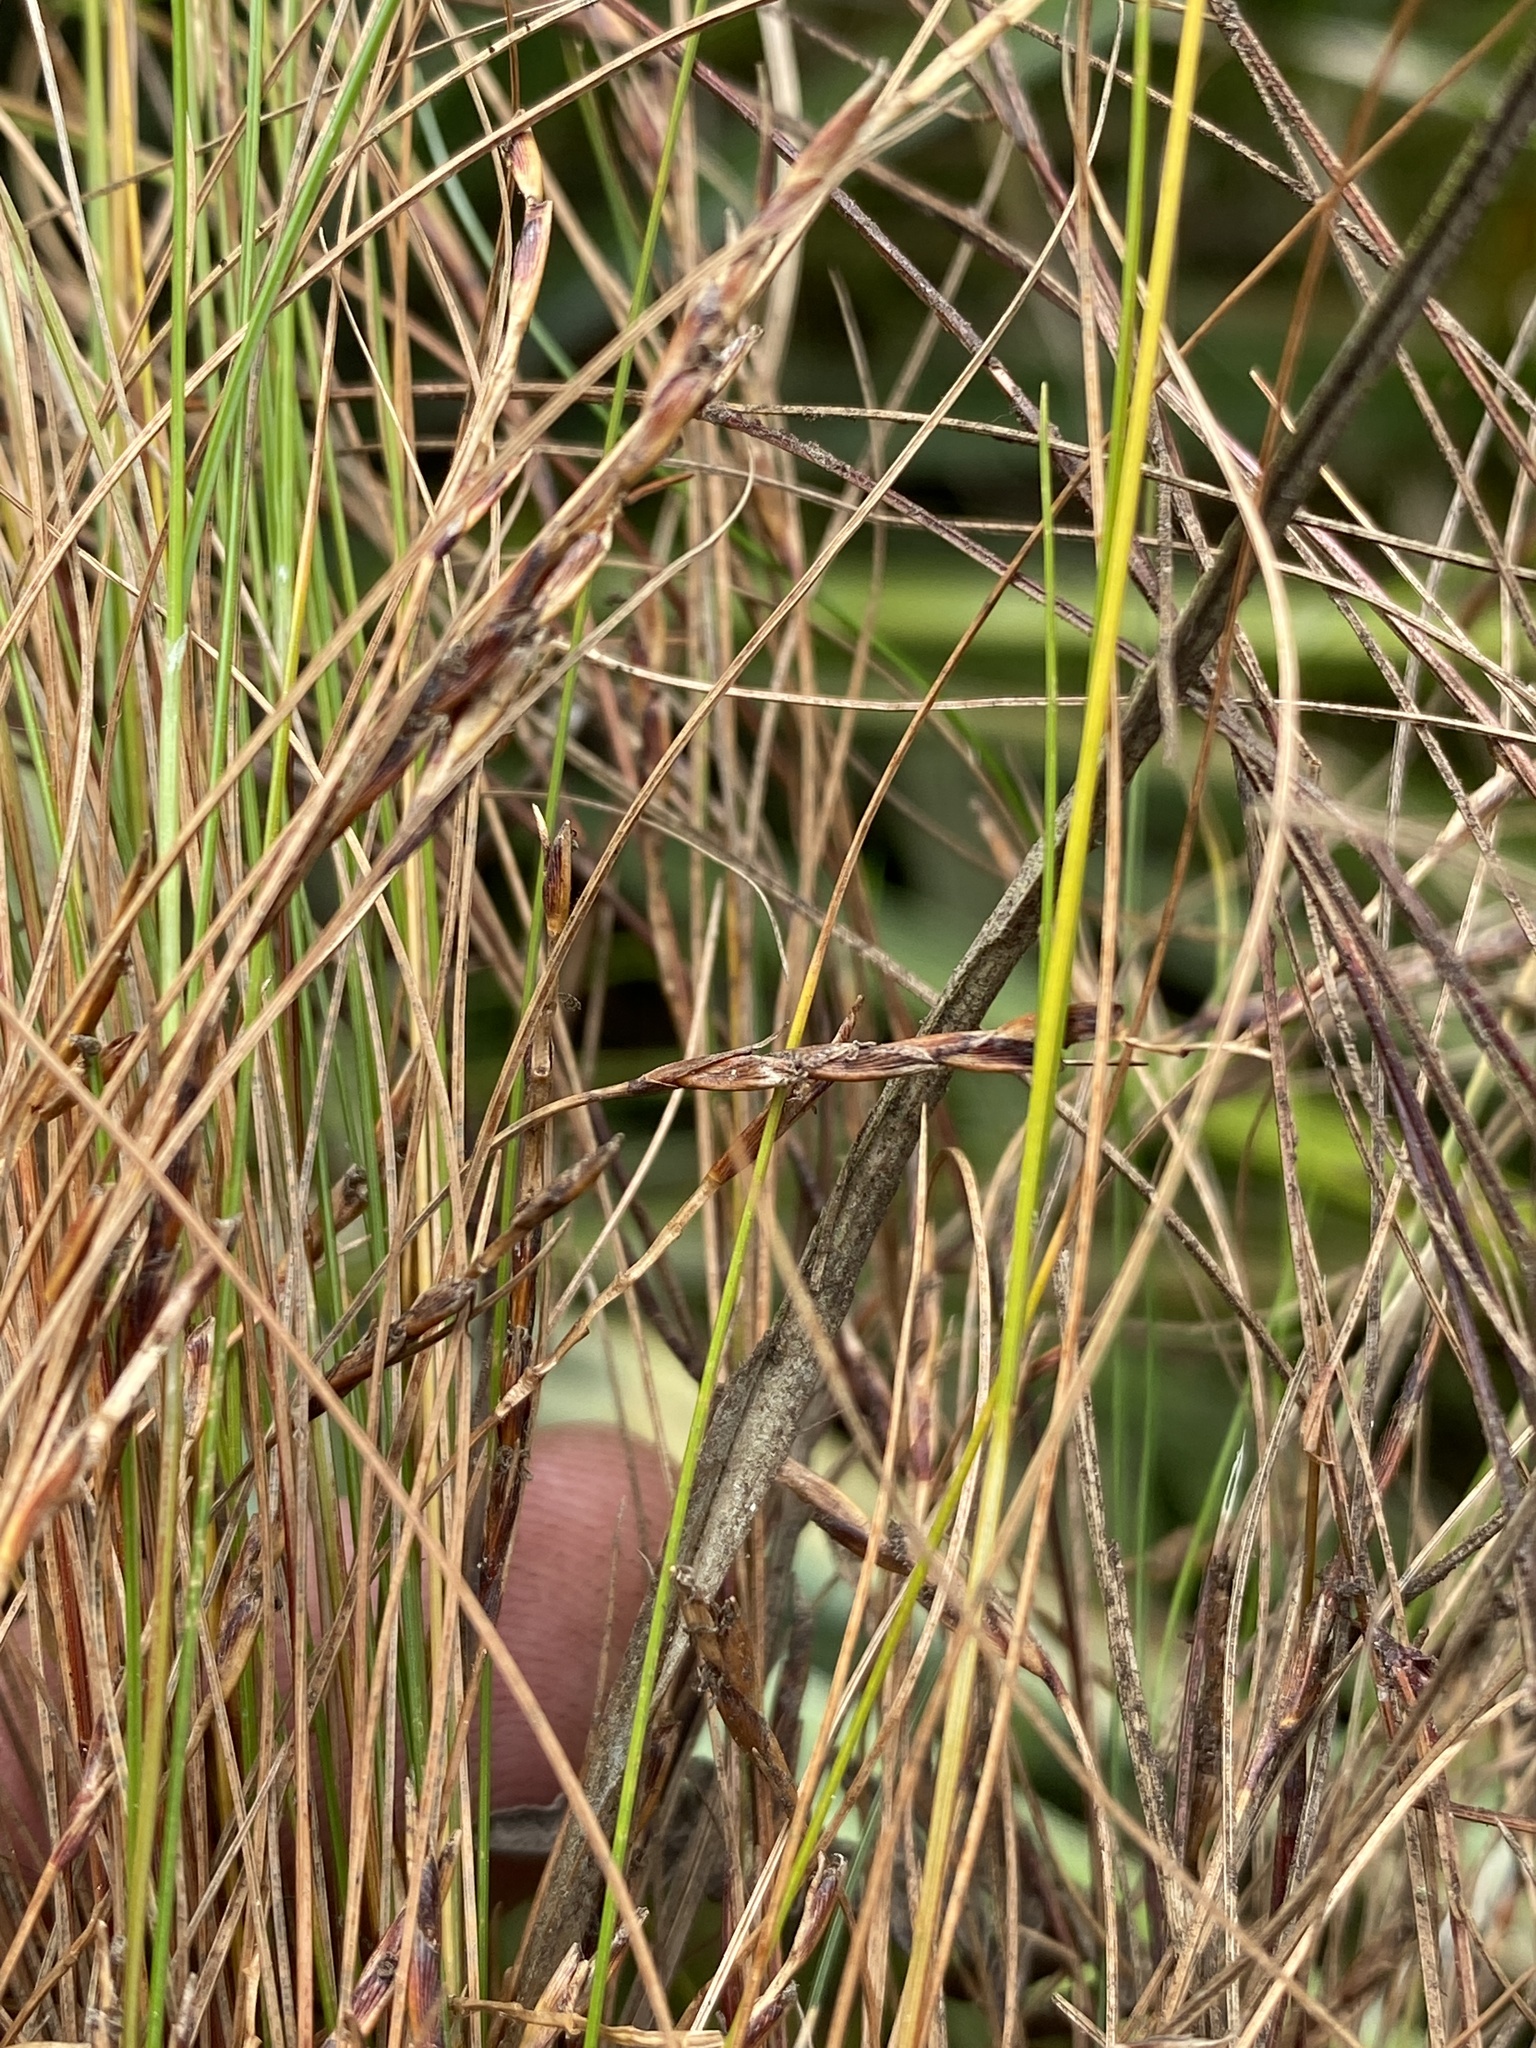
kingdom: Plantae
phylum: Tracheophyta
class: Liliopsida
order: Poales
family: Cyperaceae
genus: Ficinia
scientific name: Ficinia angustifolia
